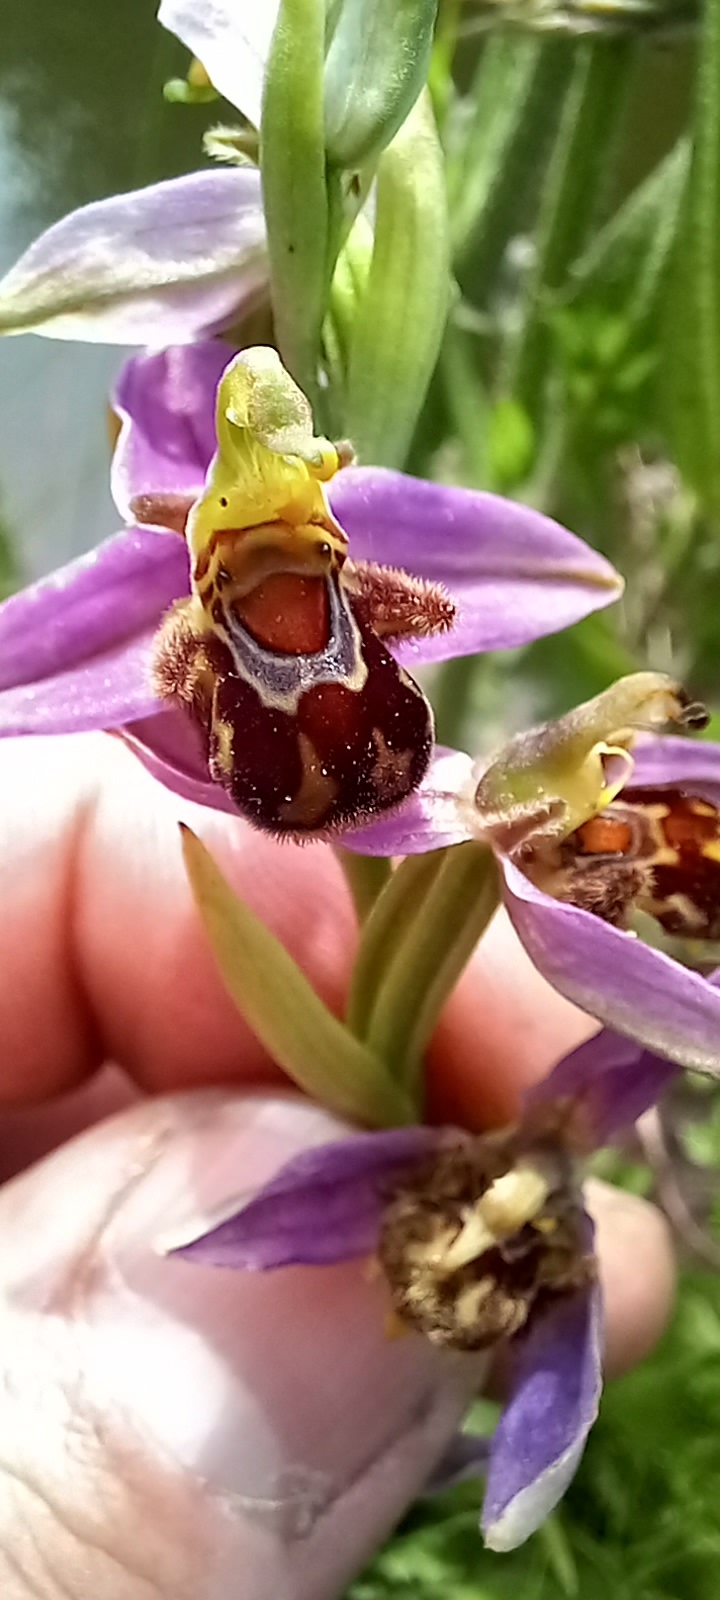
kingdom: Plantae
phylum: Tracheophyta
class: Liliopsida
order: Asparagales
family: Orchidaceae
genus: Ophrys
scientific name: Ophrys apifera
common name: Bee orchid
